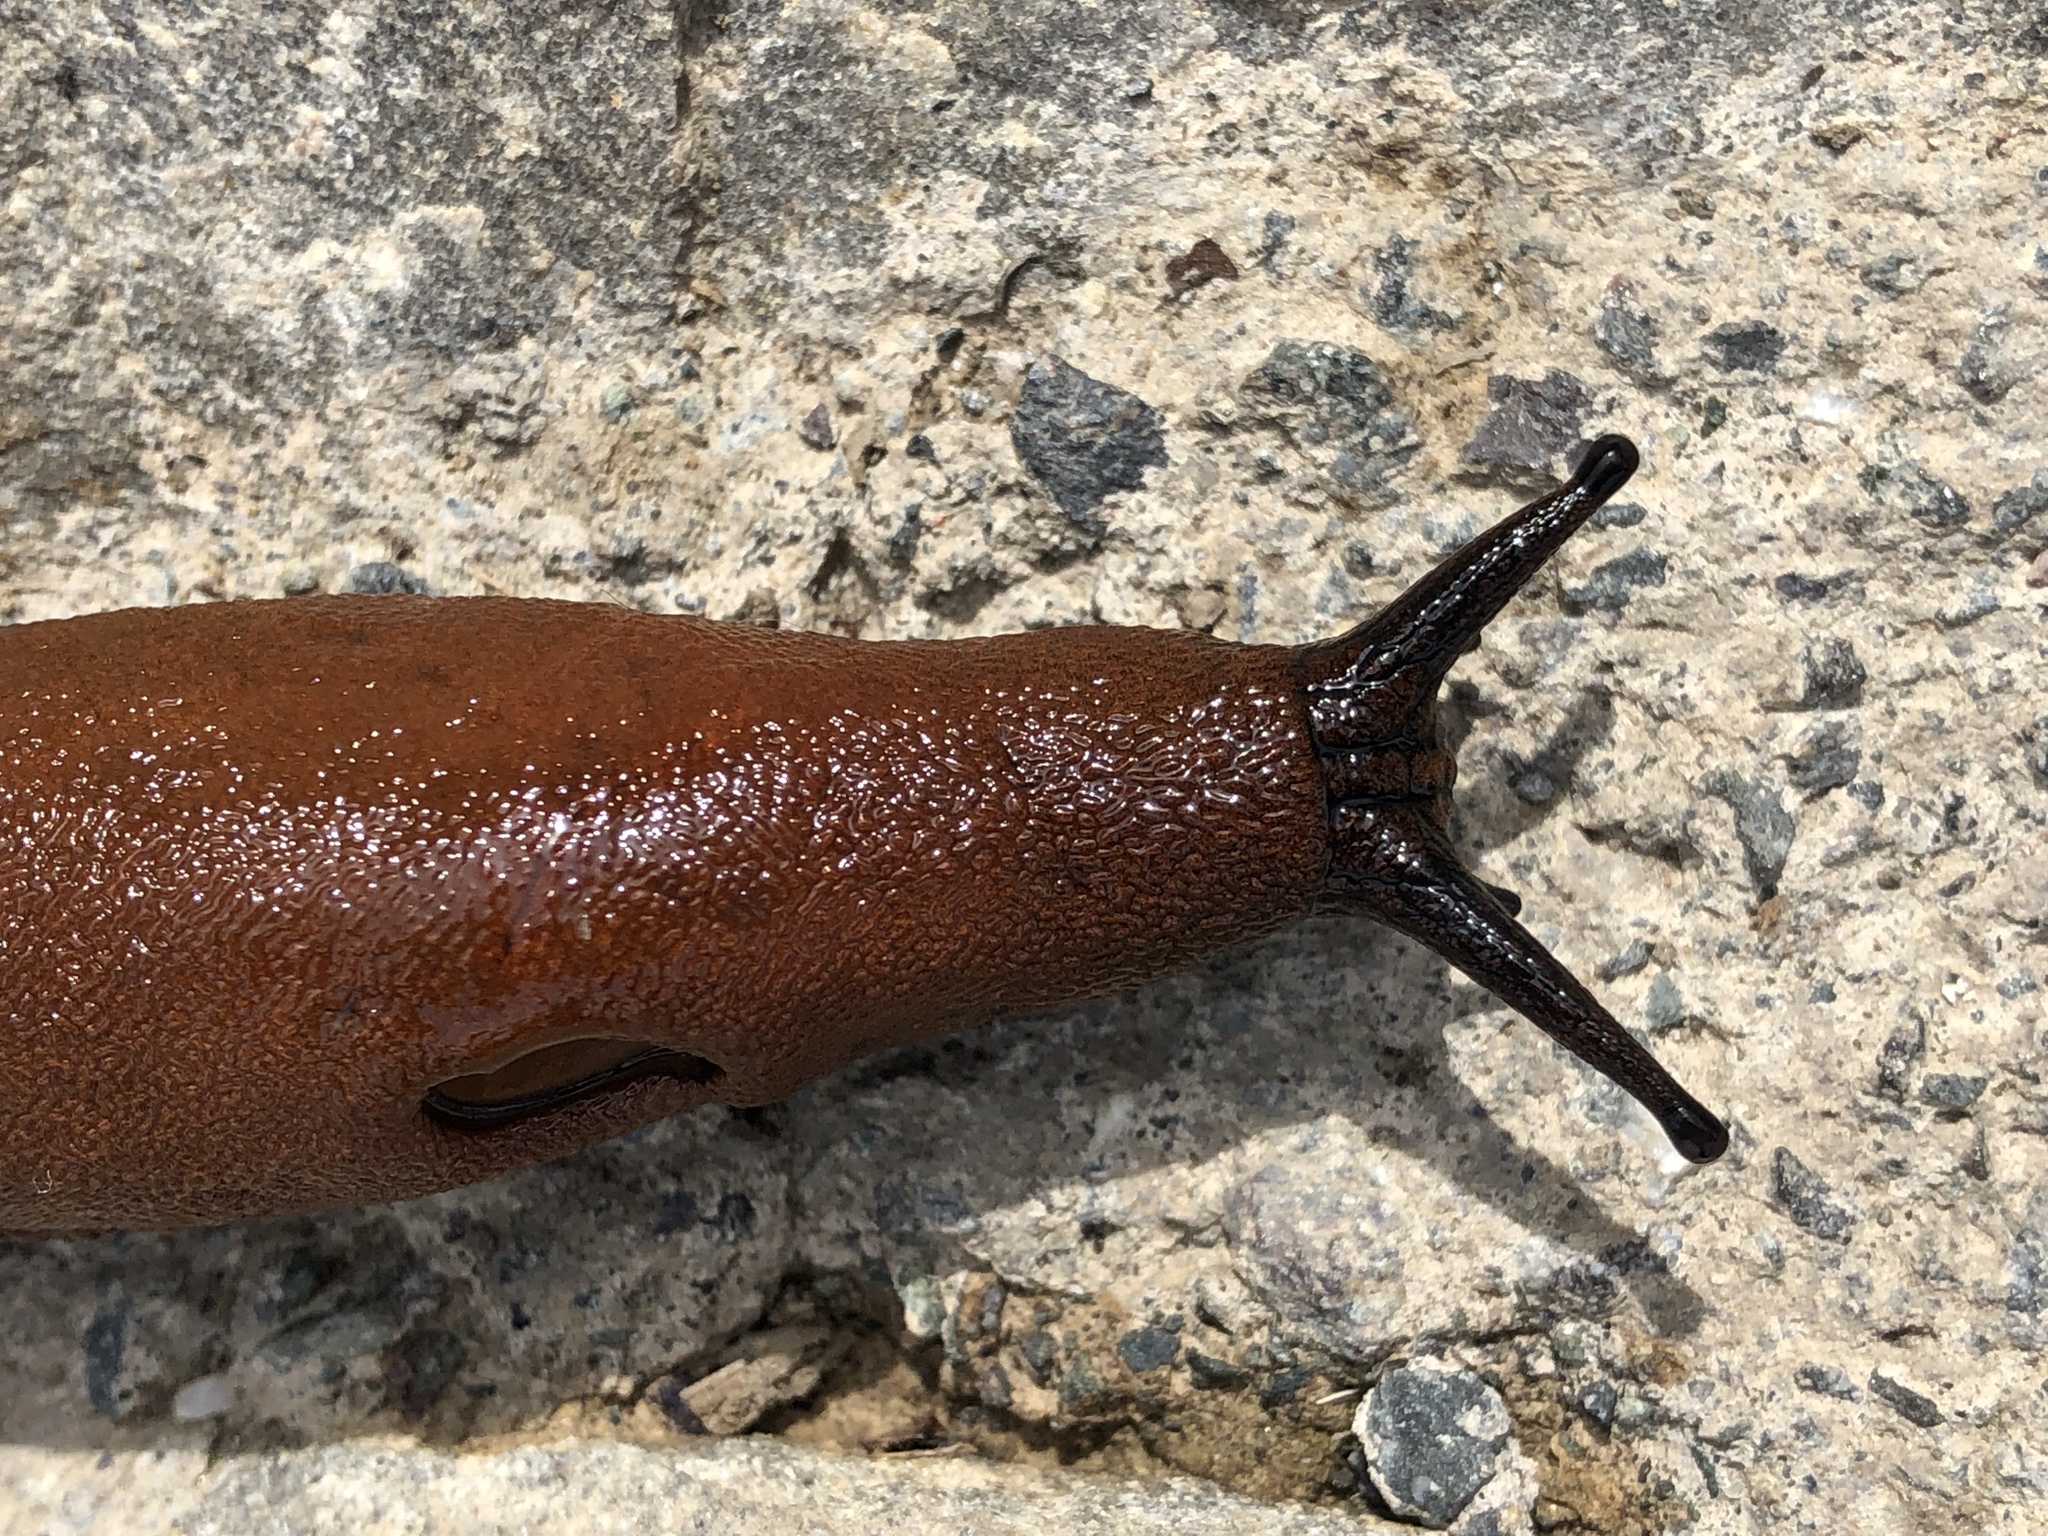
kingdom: Animalia
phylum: Mollusca
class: Gastropoda
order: Stylommatophora
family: Arionidae
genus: Arion
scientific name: Arion rufus
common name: Chocolate arion
